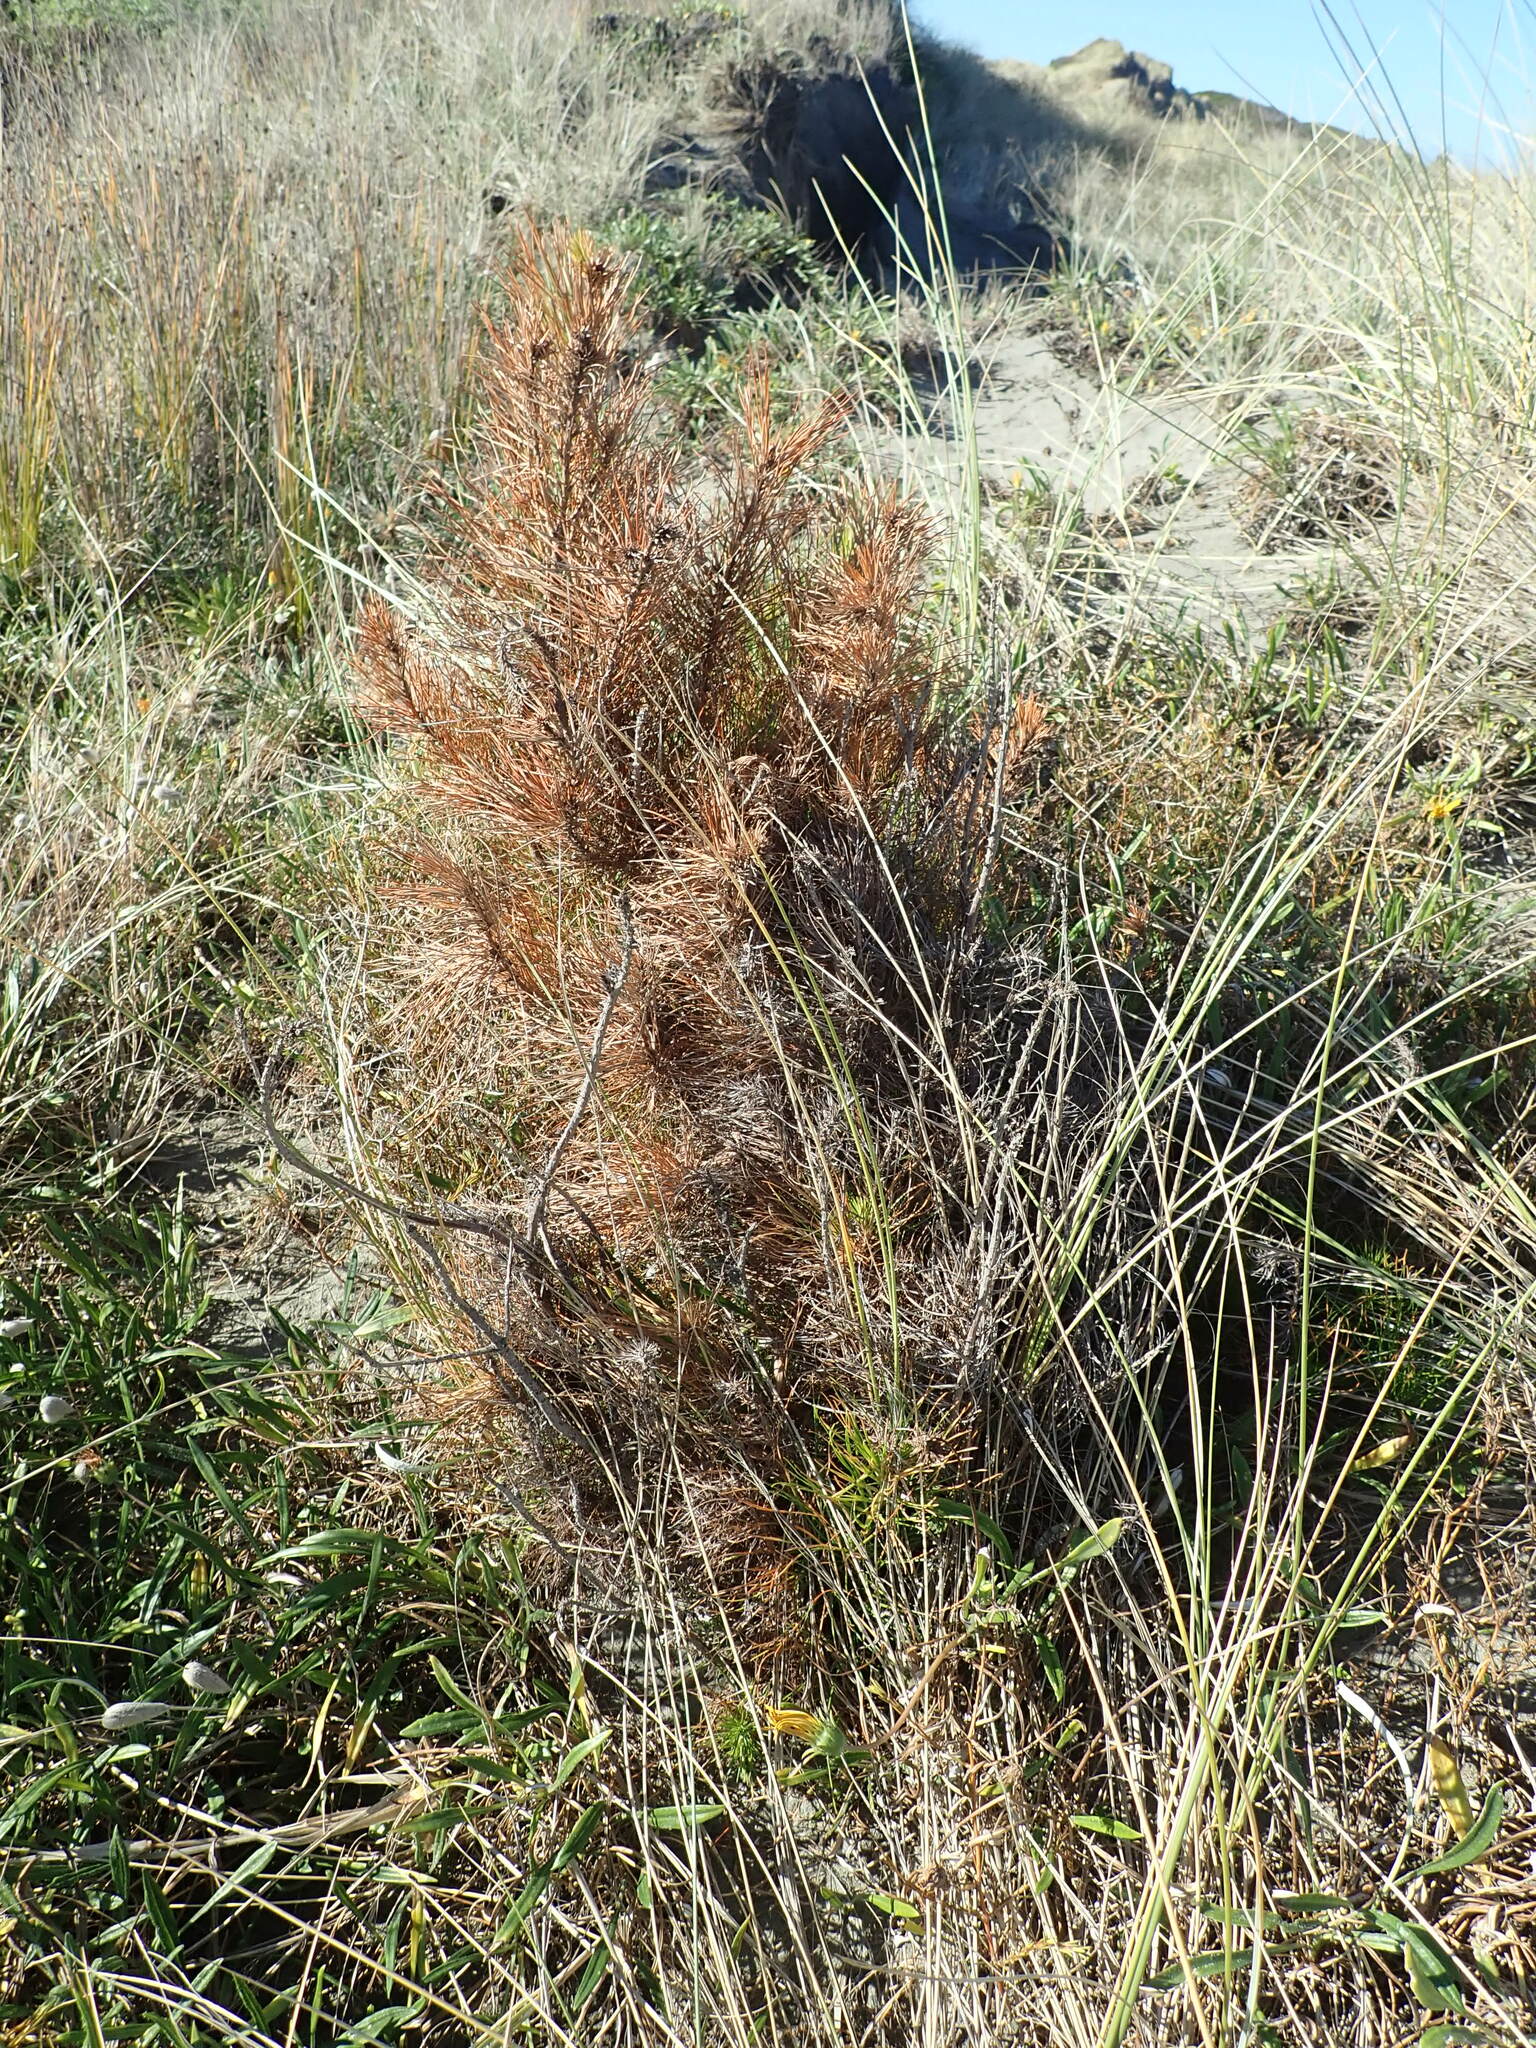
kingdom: Plantae
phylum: Tracheophyta
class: Pinopsida
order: Pinales
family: Pinaceae
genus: Pinus
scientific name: Pinus radiata
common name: Monterey pine
